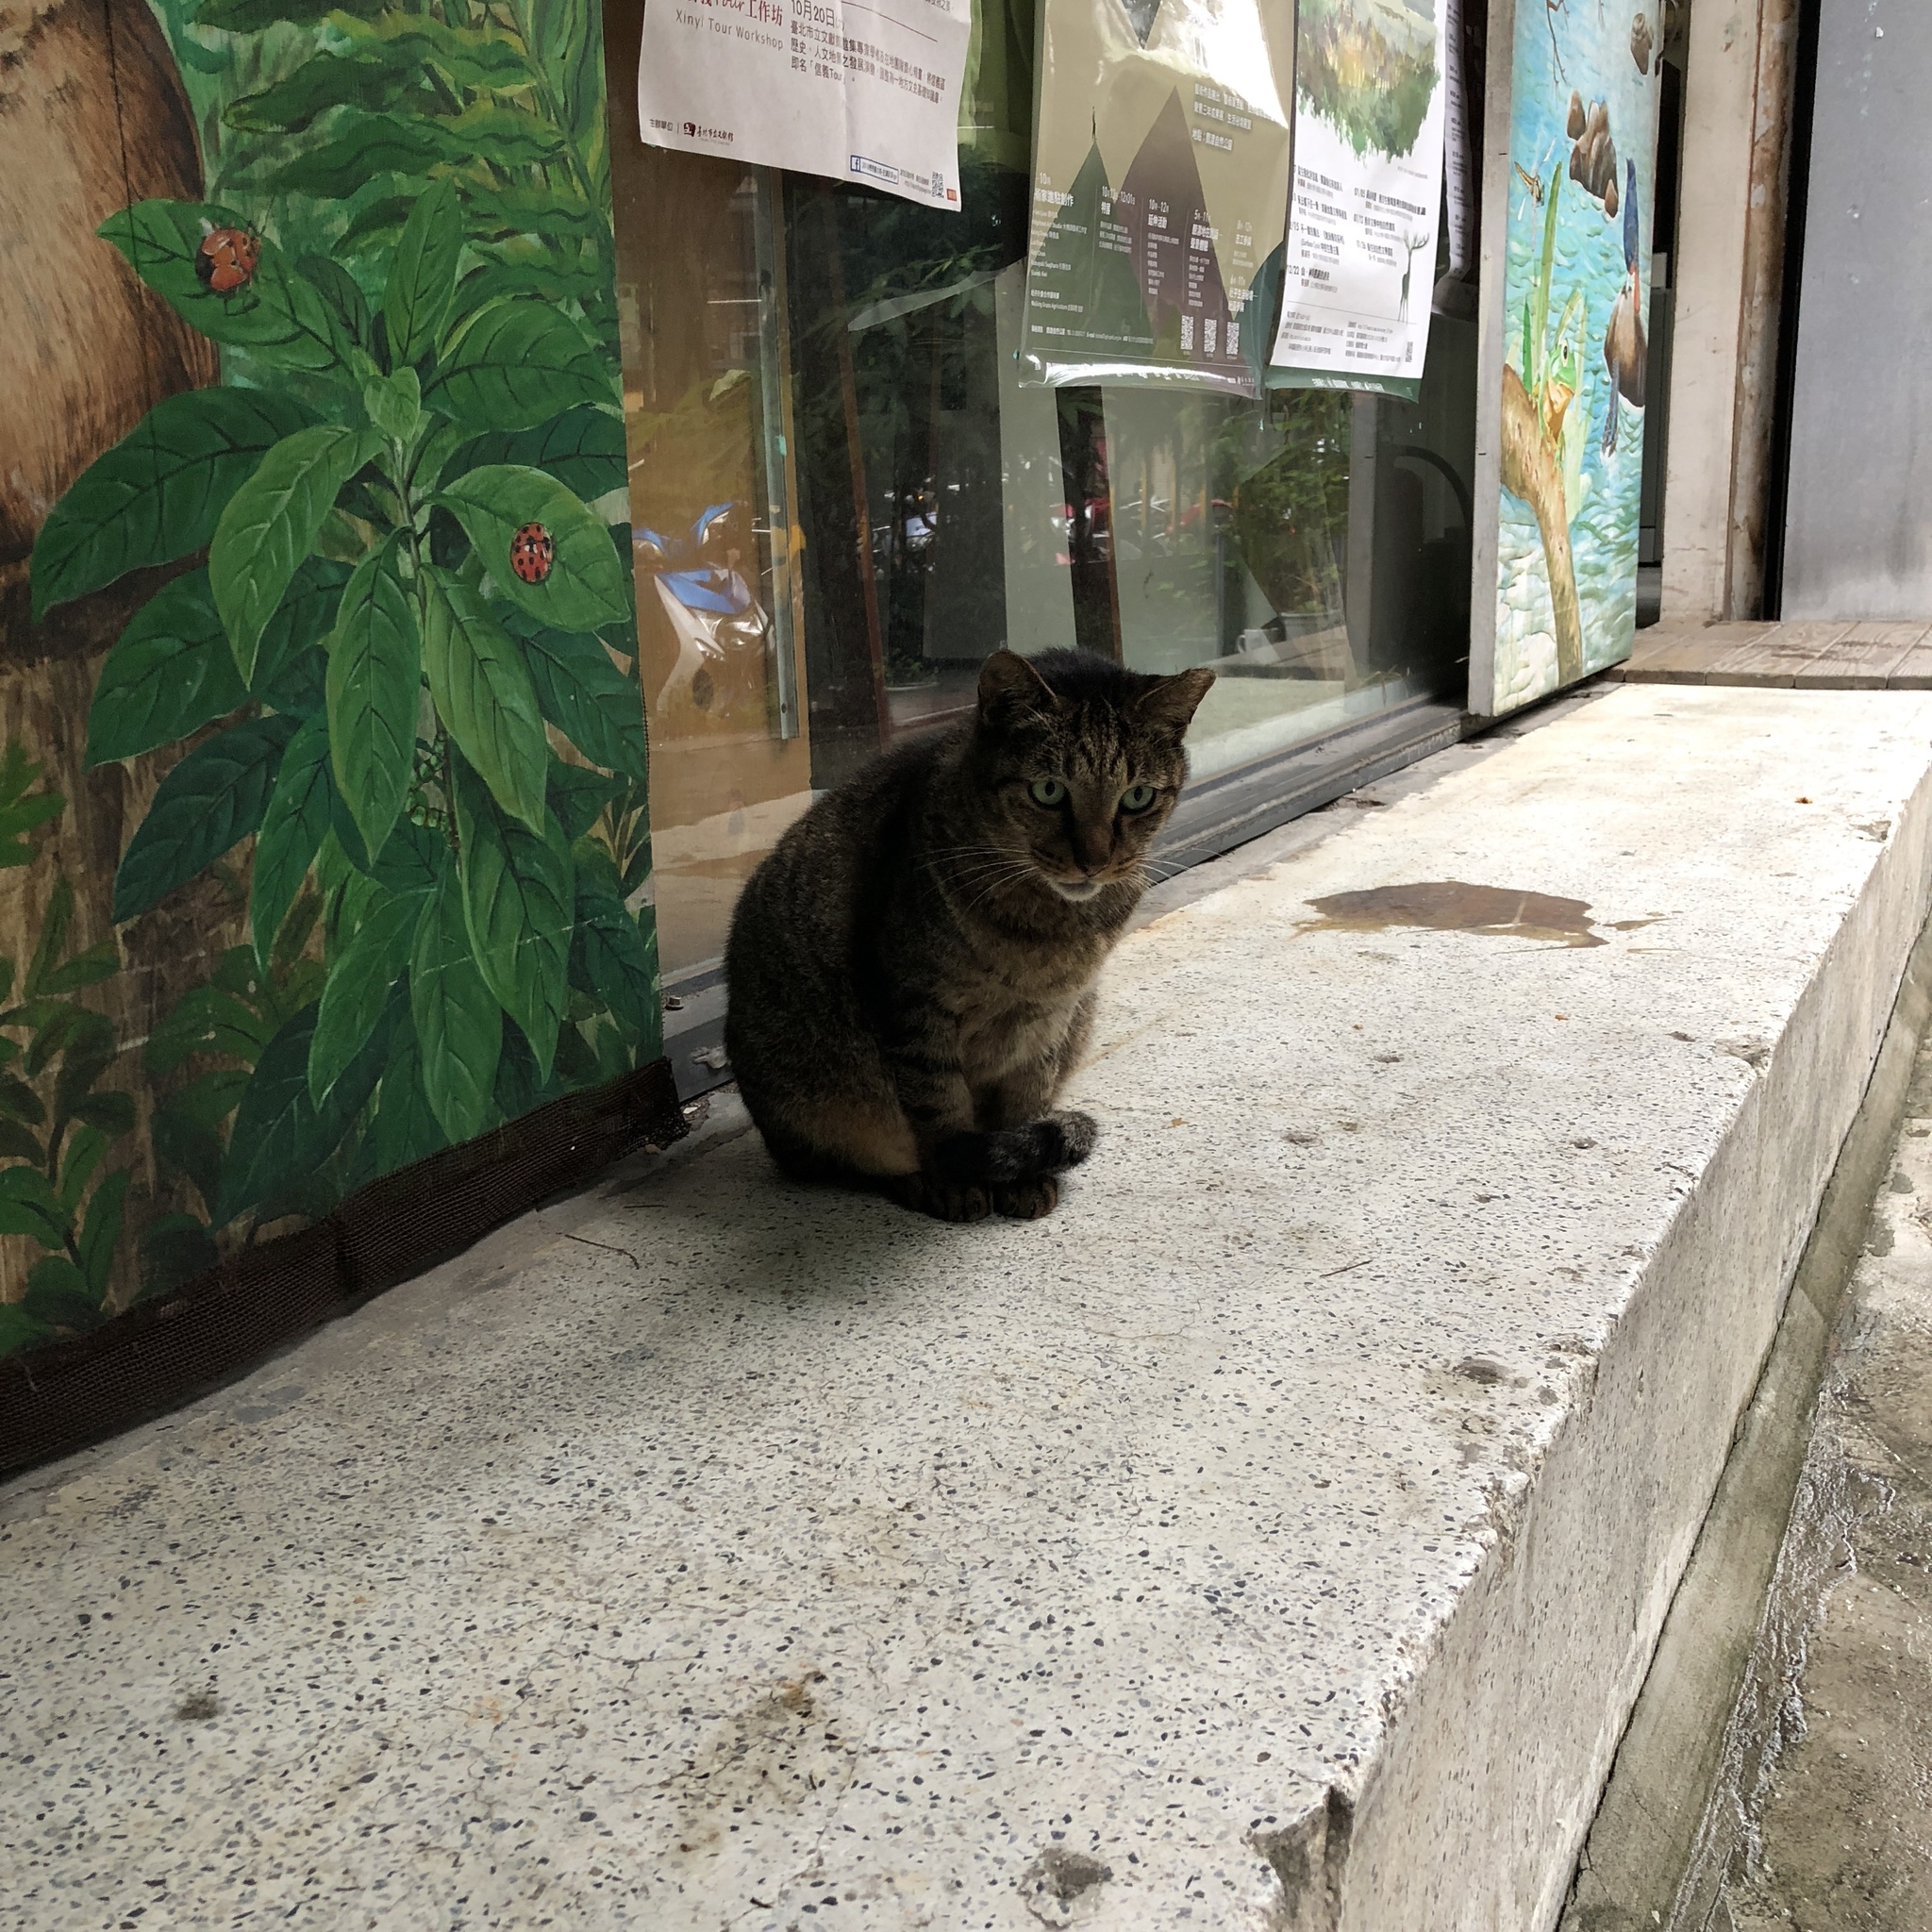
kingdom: Animalia
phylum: Chordata
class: Mammalia
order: Carnivora
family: Felidae
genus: Felis
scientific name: Felis catus
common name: Domestic cat
